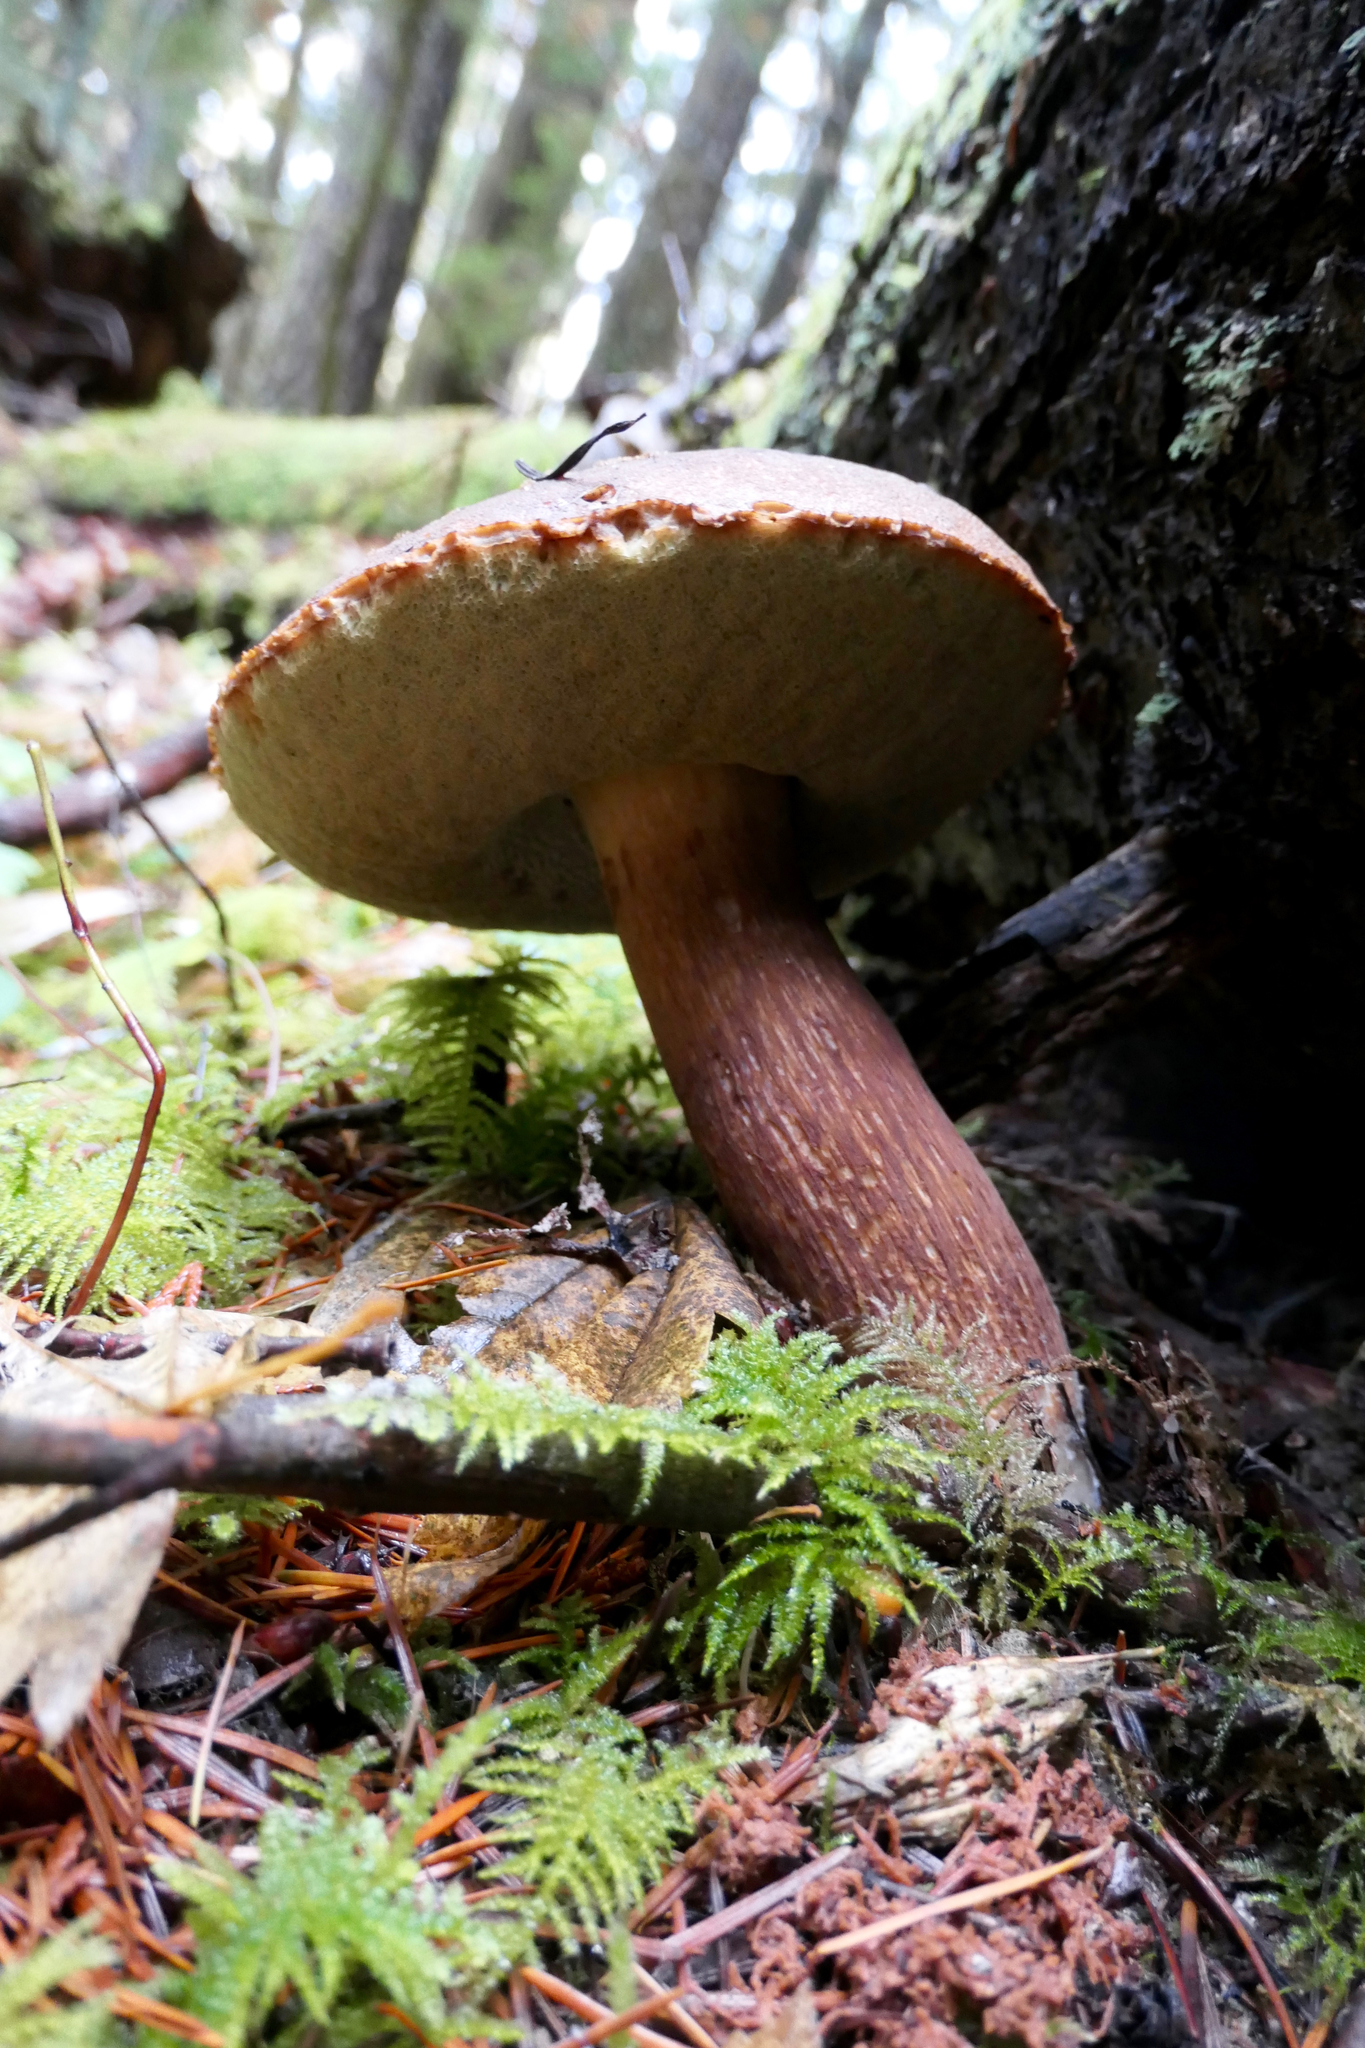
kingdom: Fungi
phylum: Basidiomycota
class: Agaricomycetes
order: Boletales
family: Boletaceae
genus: Boletus
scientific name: Boletus fibrillosus
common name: Fib king
